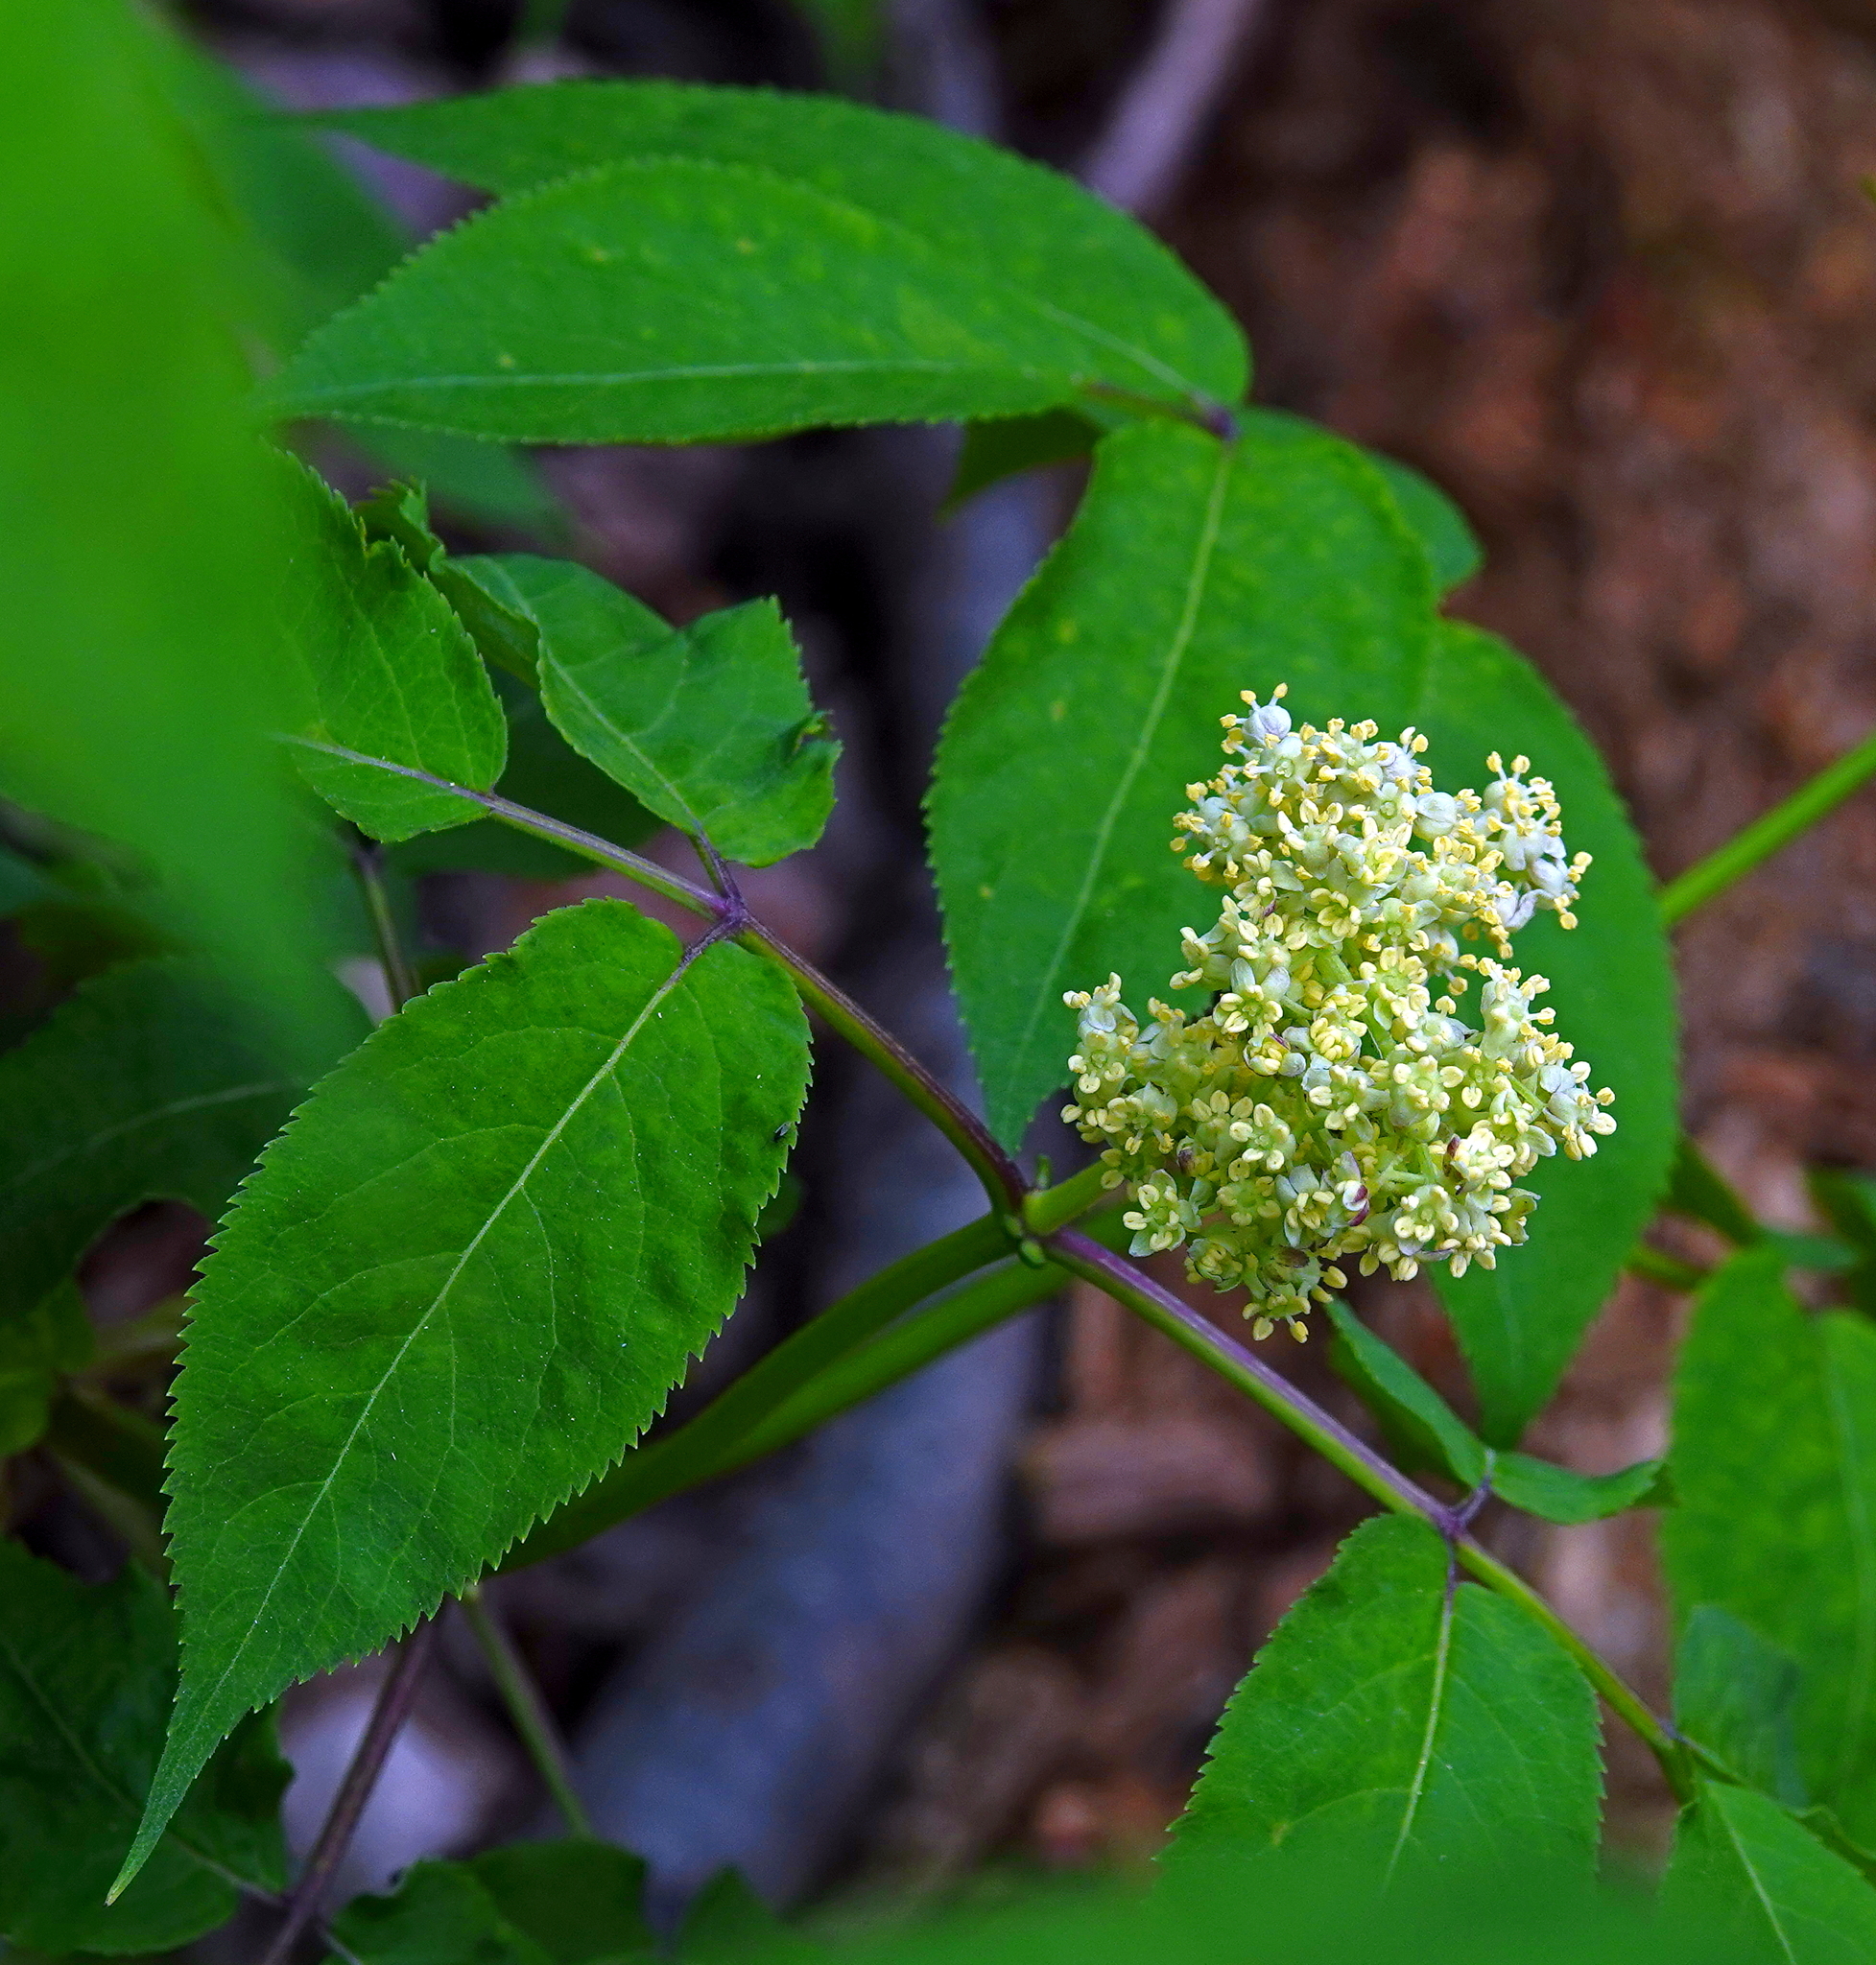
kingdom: Plantae
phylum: Tracheophyta
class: Magnoliopsida
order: Dipsacales
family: Viburnaceae
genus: Sambucus
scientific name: Sambucus racemosa
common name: Red-berried elder
